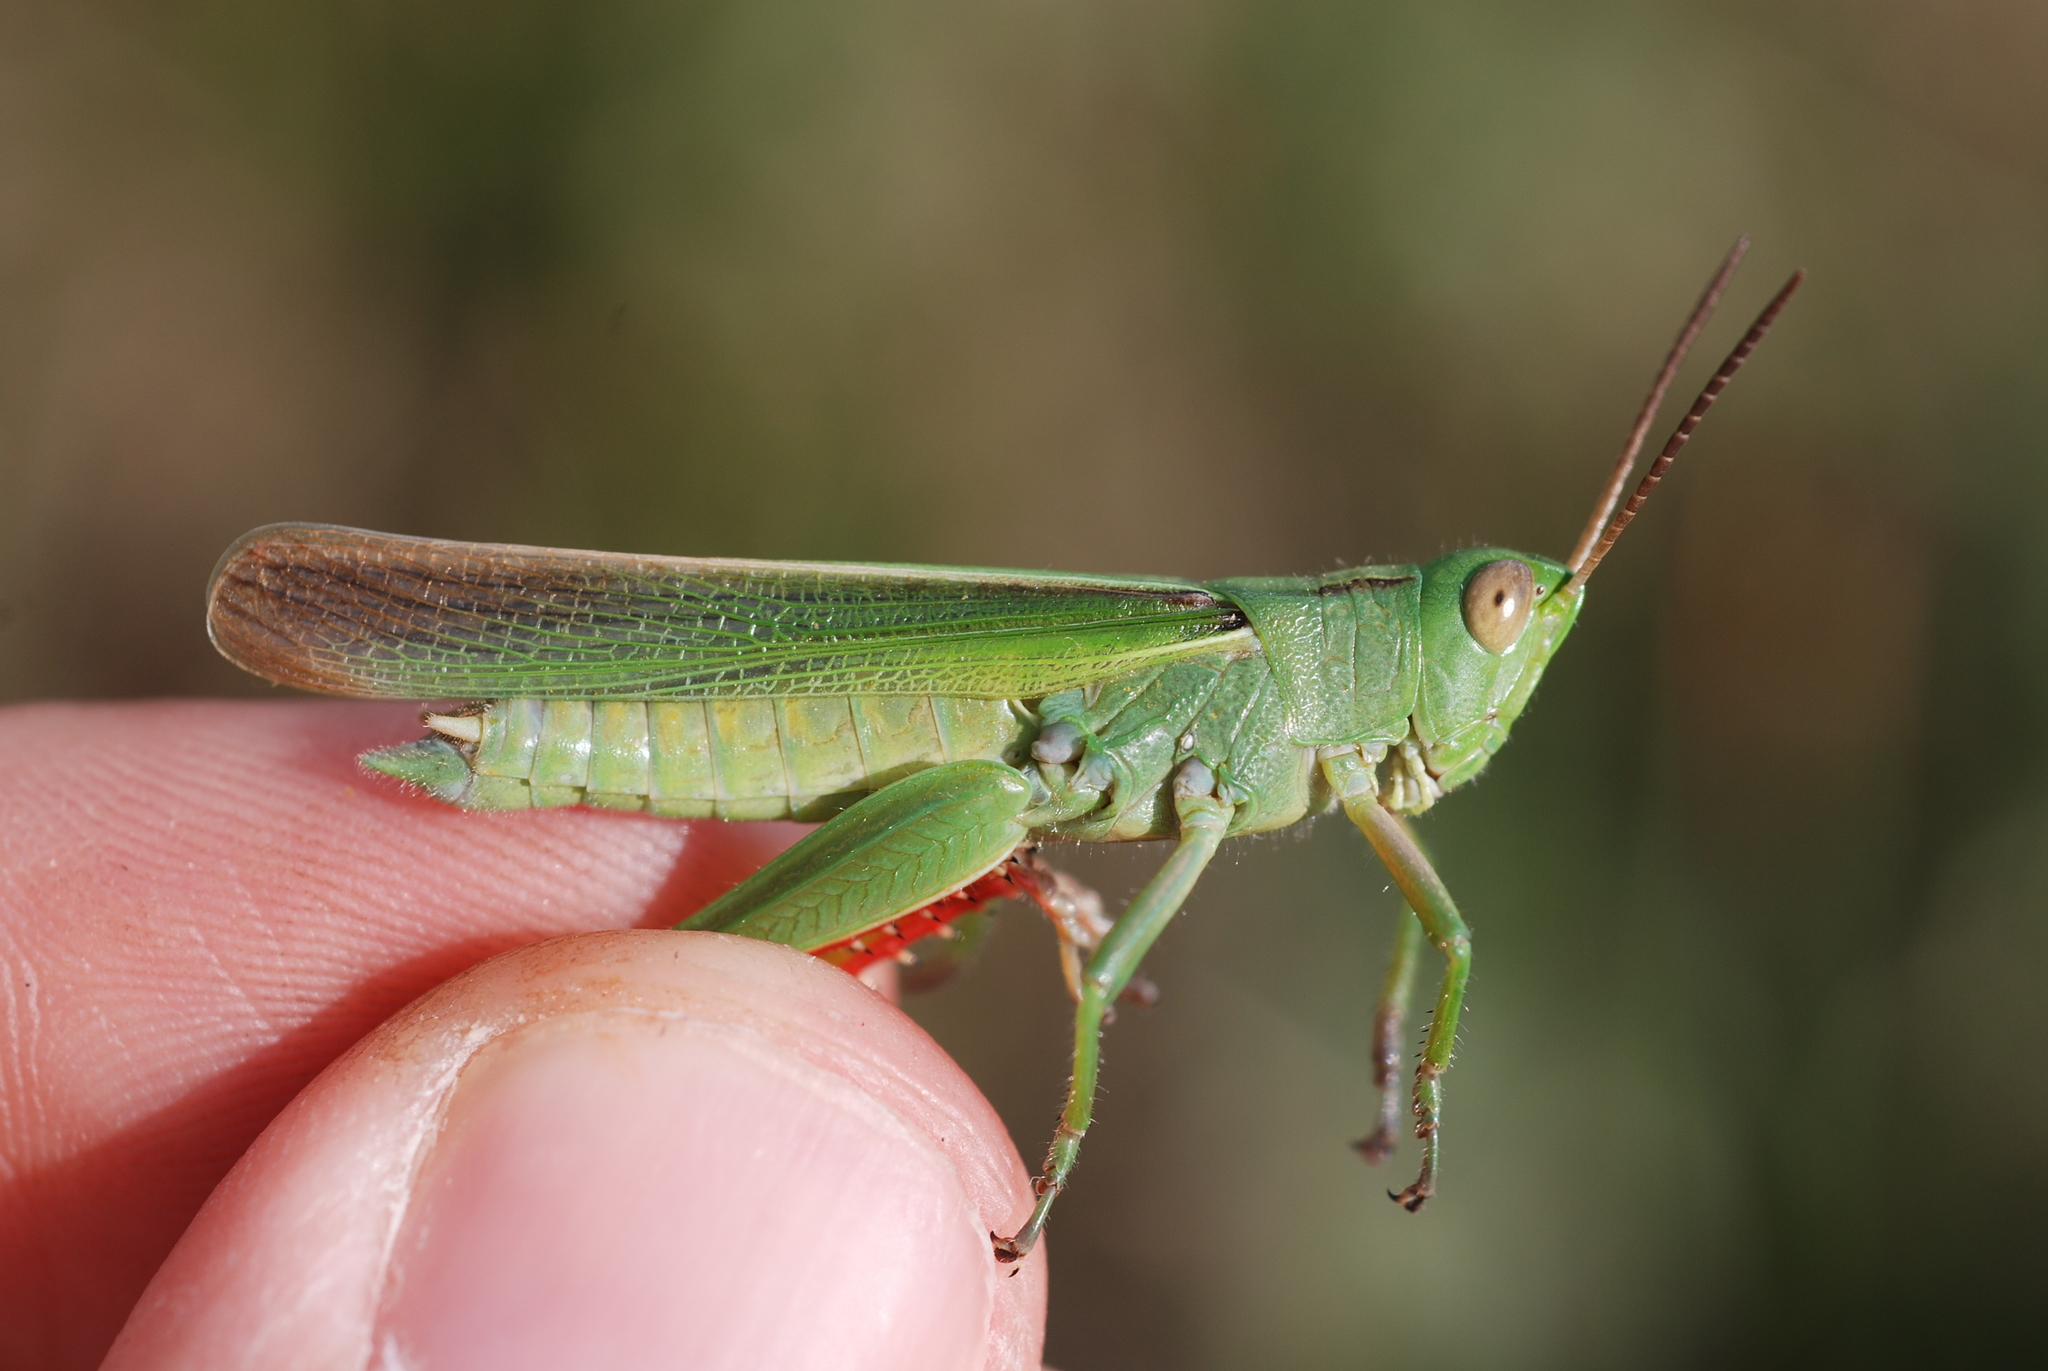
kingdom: Animalia
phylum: Arthropoda
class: Insecta
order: Orthoptera
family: Acrididae
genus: Paracinema
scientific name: Paracinema tricolor
